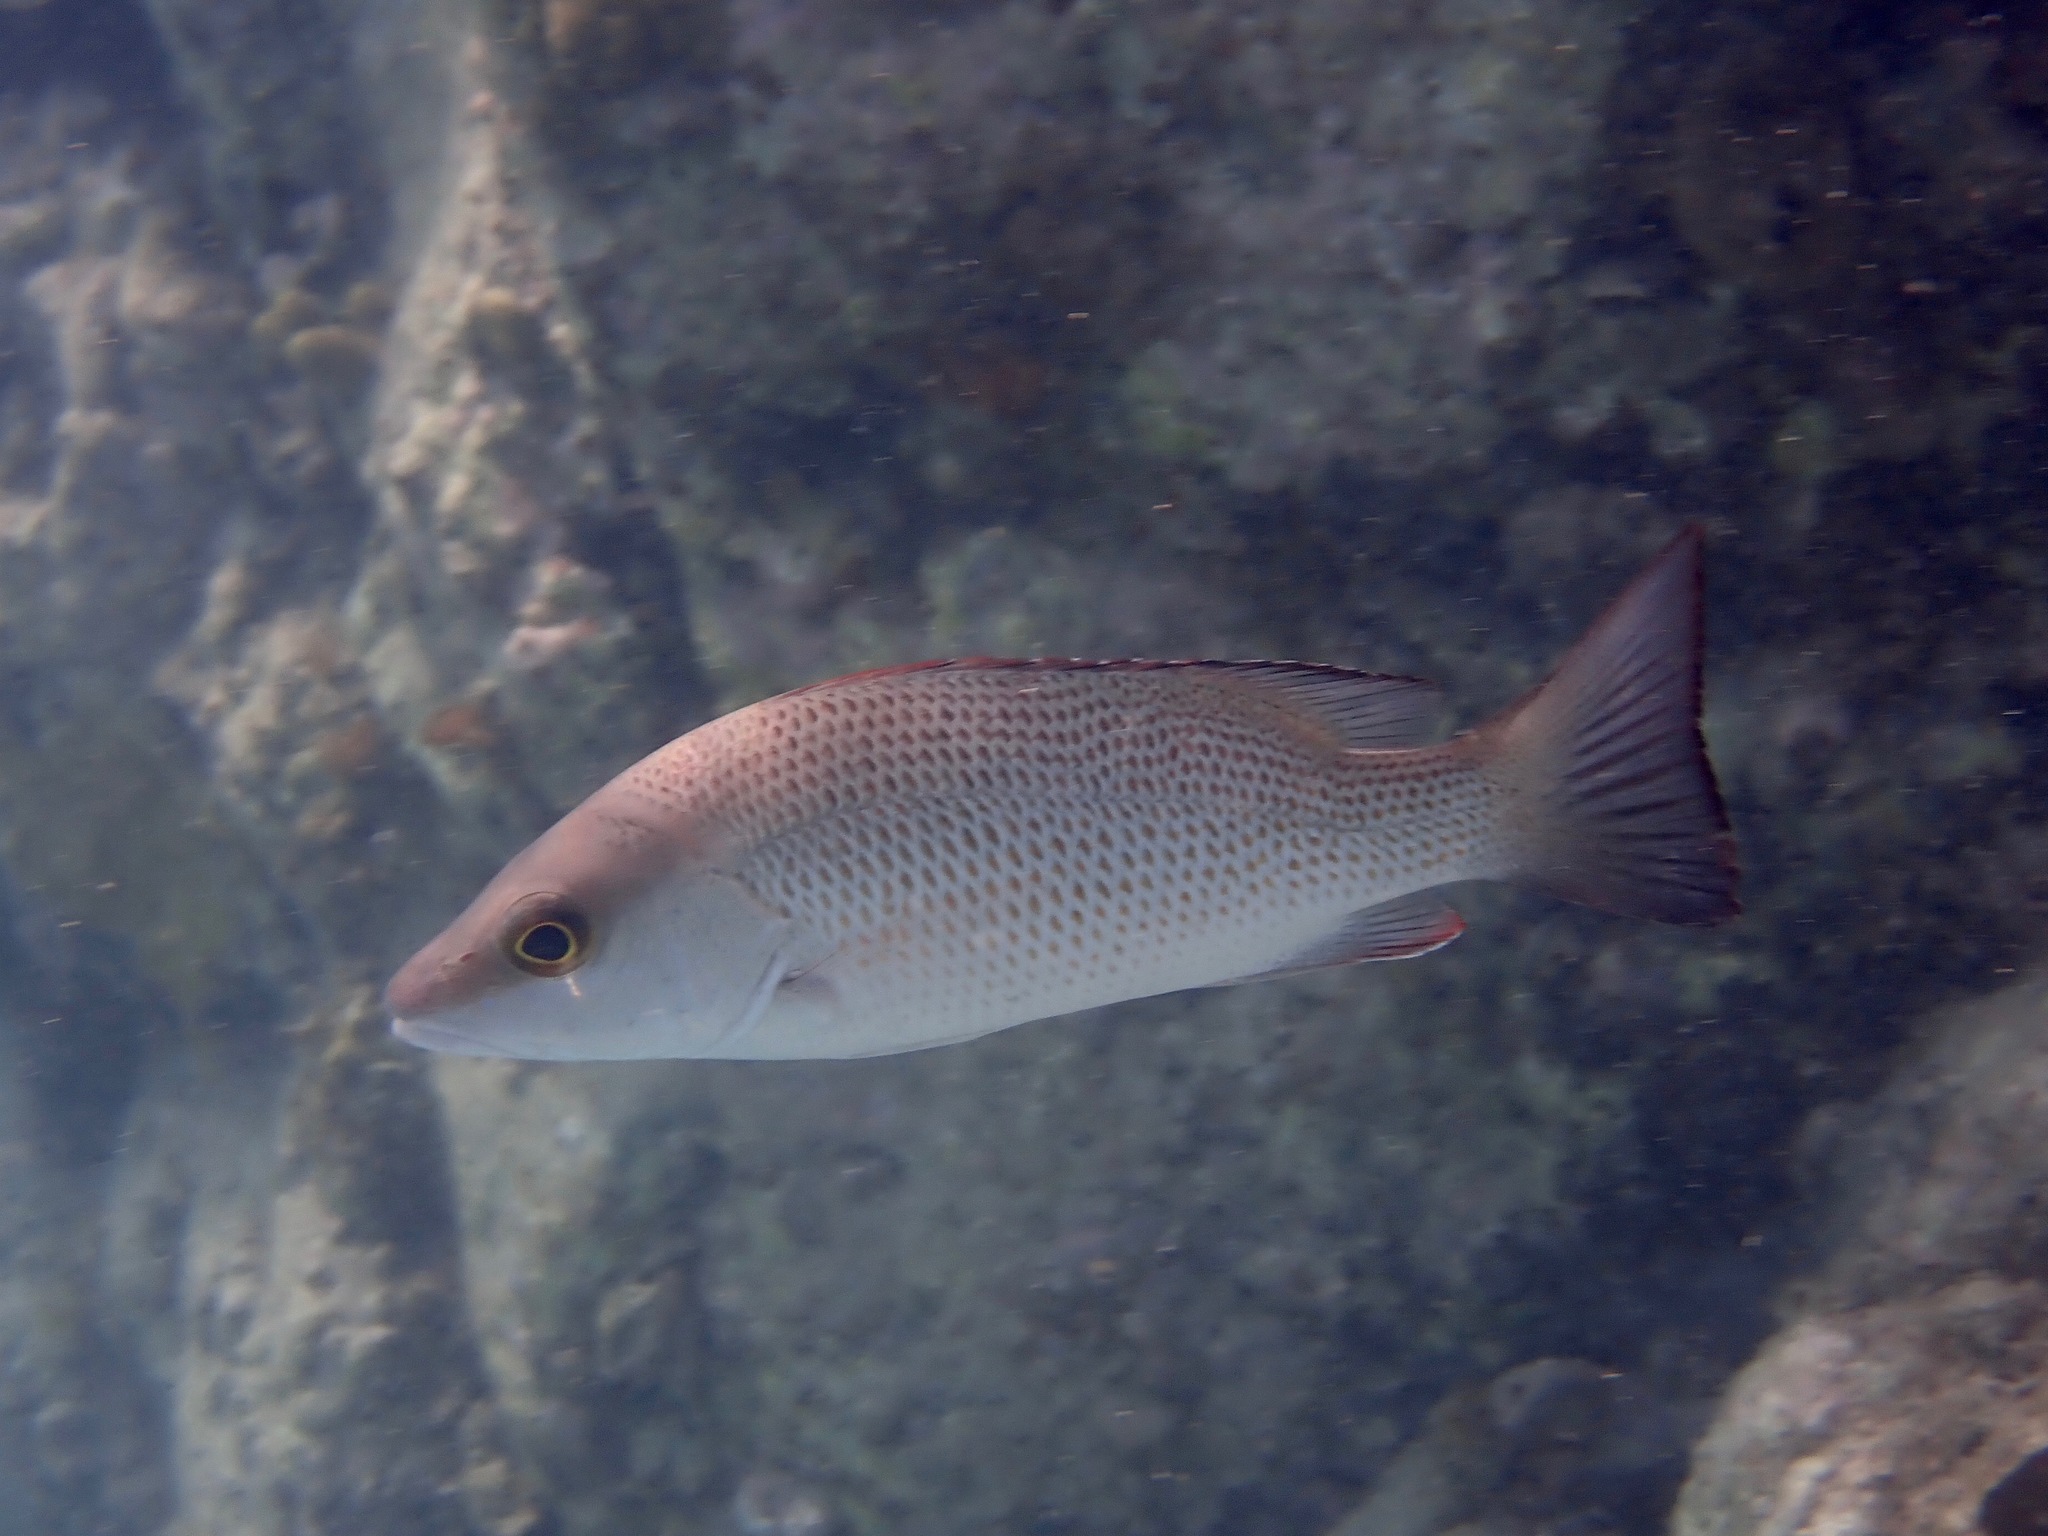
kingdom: Animalia
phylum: Chordata
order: Perciformes
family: Lutjanidae
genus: Lutjanus
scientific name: Lutjanus griseus
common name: Gray snapper
